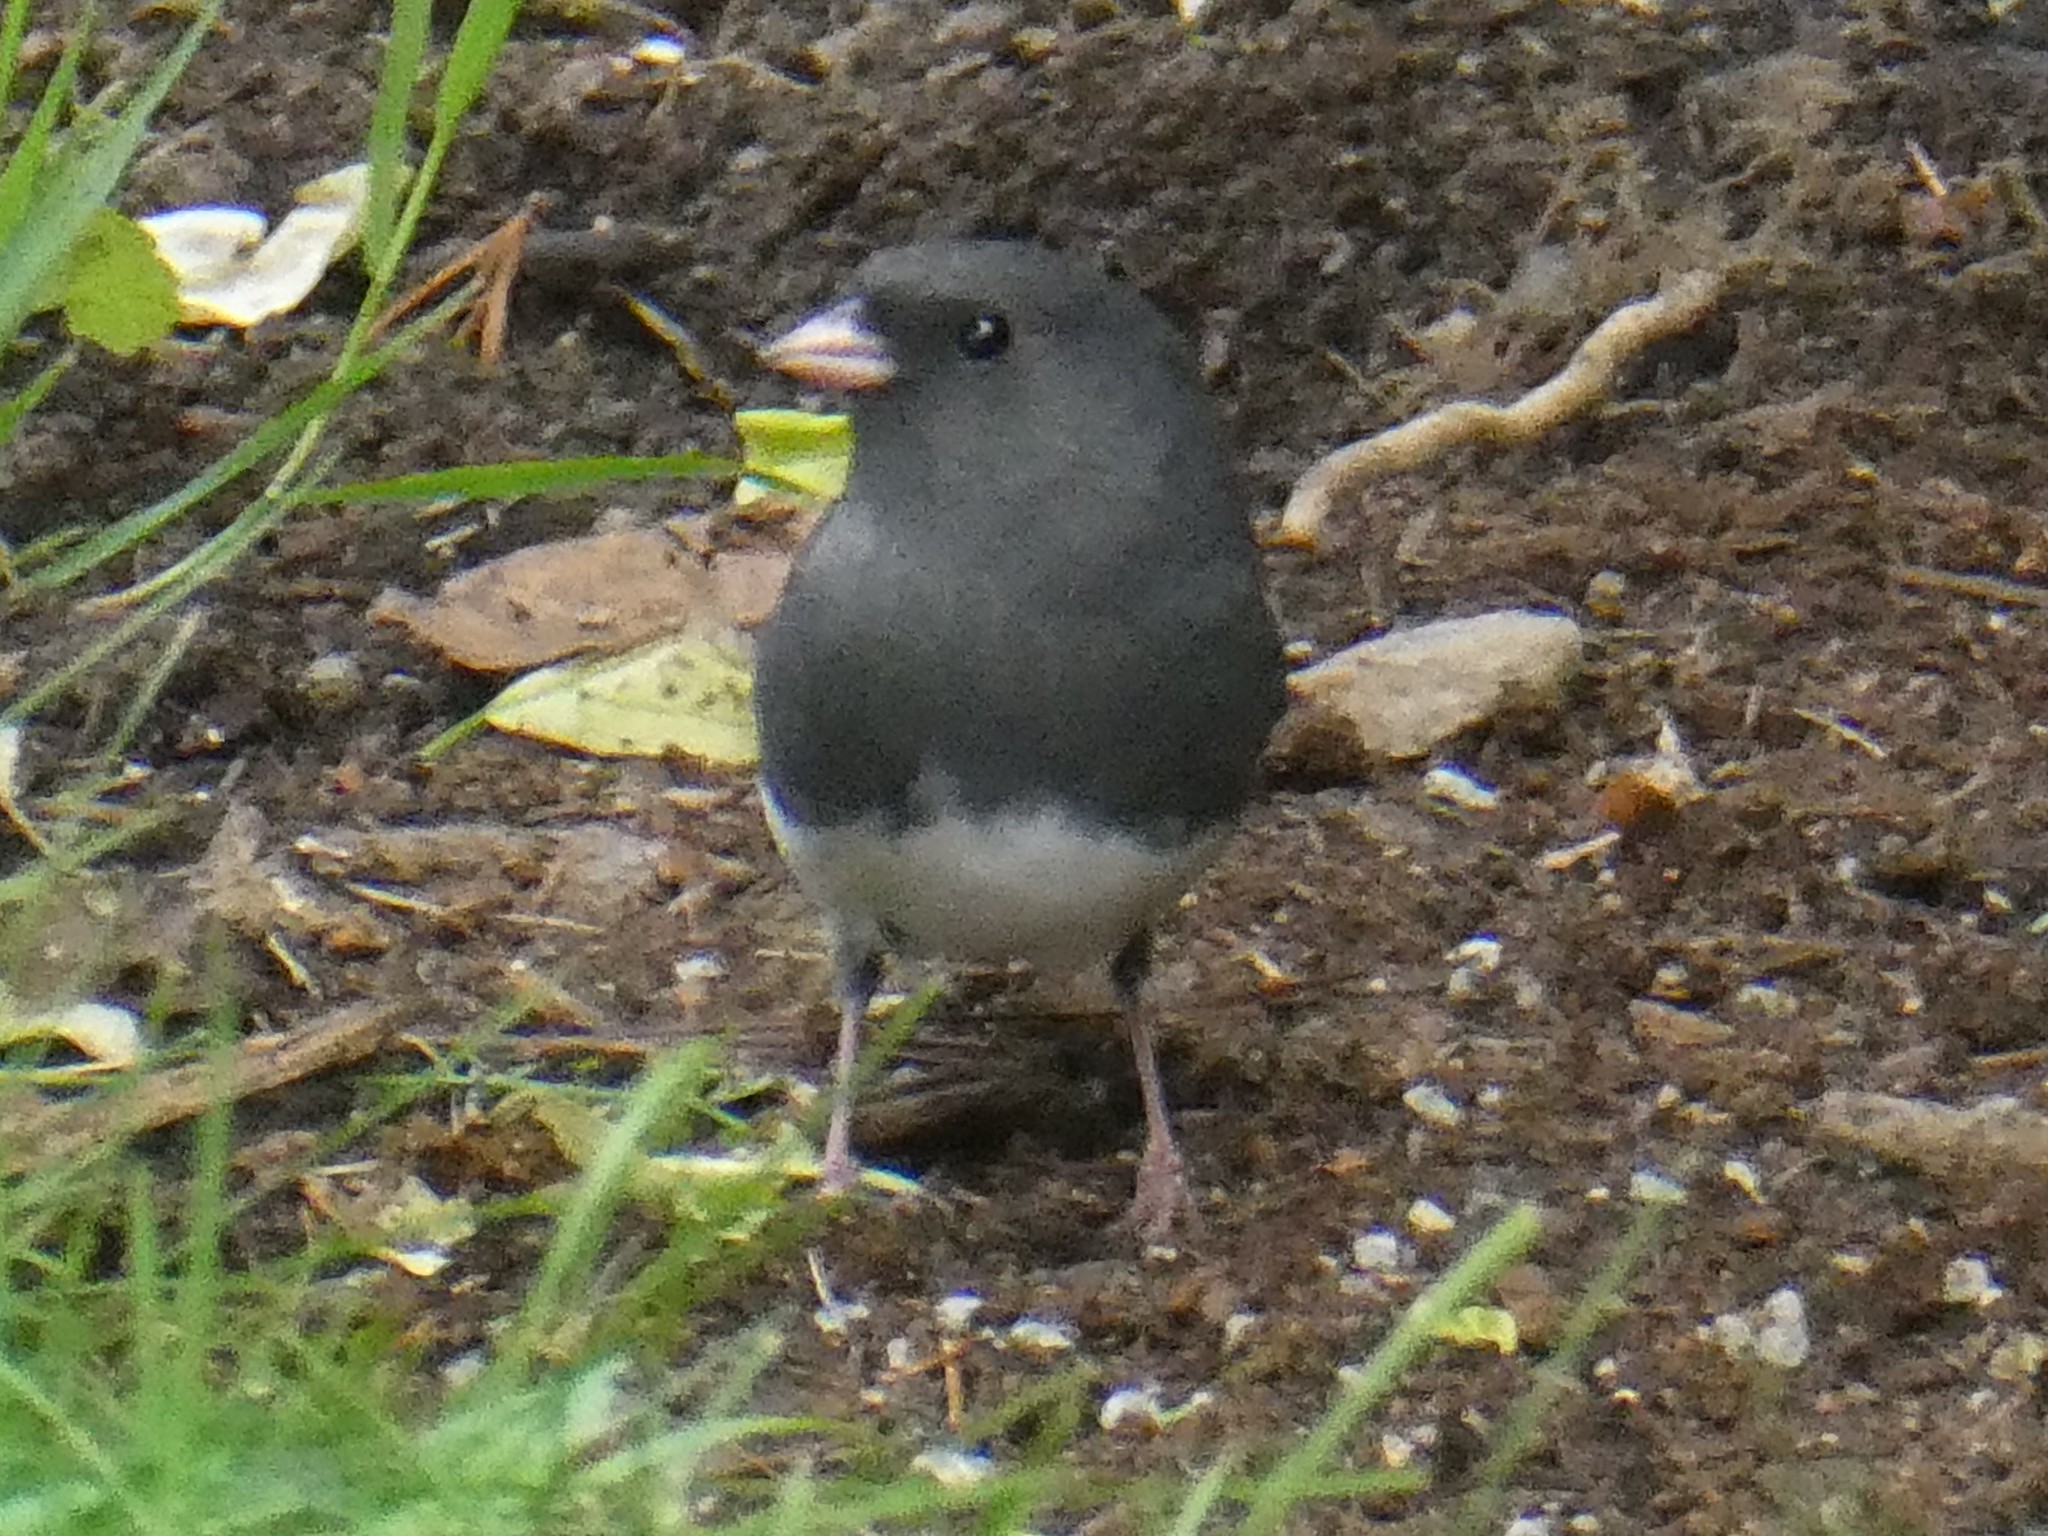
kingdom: Animalia
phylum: Chordata
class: Aves
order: Passeriformes
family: Passerellidae
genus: Junco
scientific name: Junco hyemalis
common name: Dark-eyed junco
